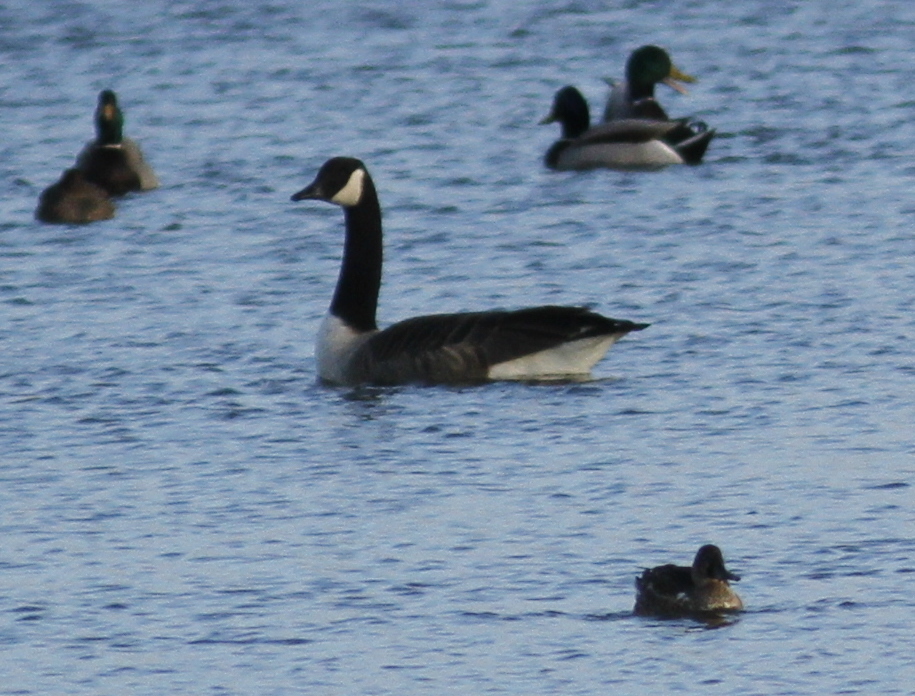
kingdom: Animalia
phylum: Chordata
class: Aves
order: Anseriformes
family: Anatidae
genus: Branta
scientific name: Branta canadensis
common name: Canada goose
